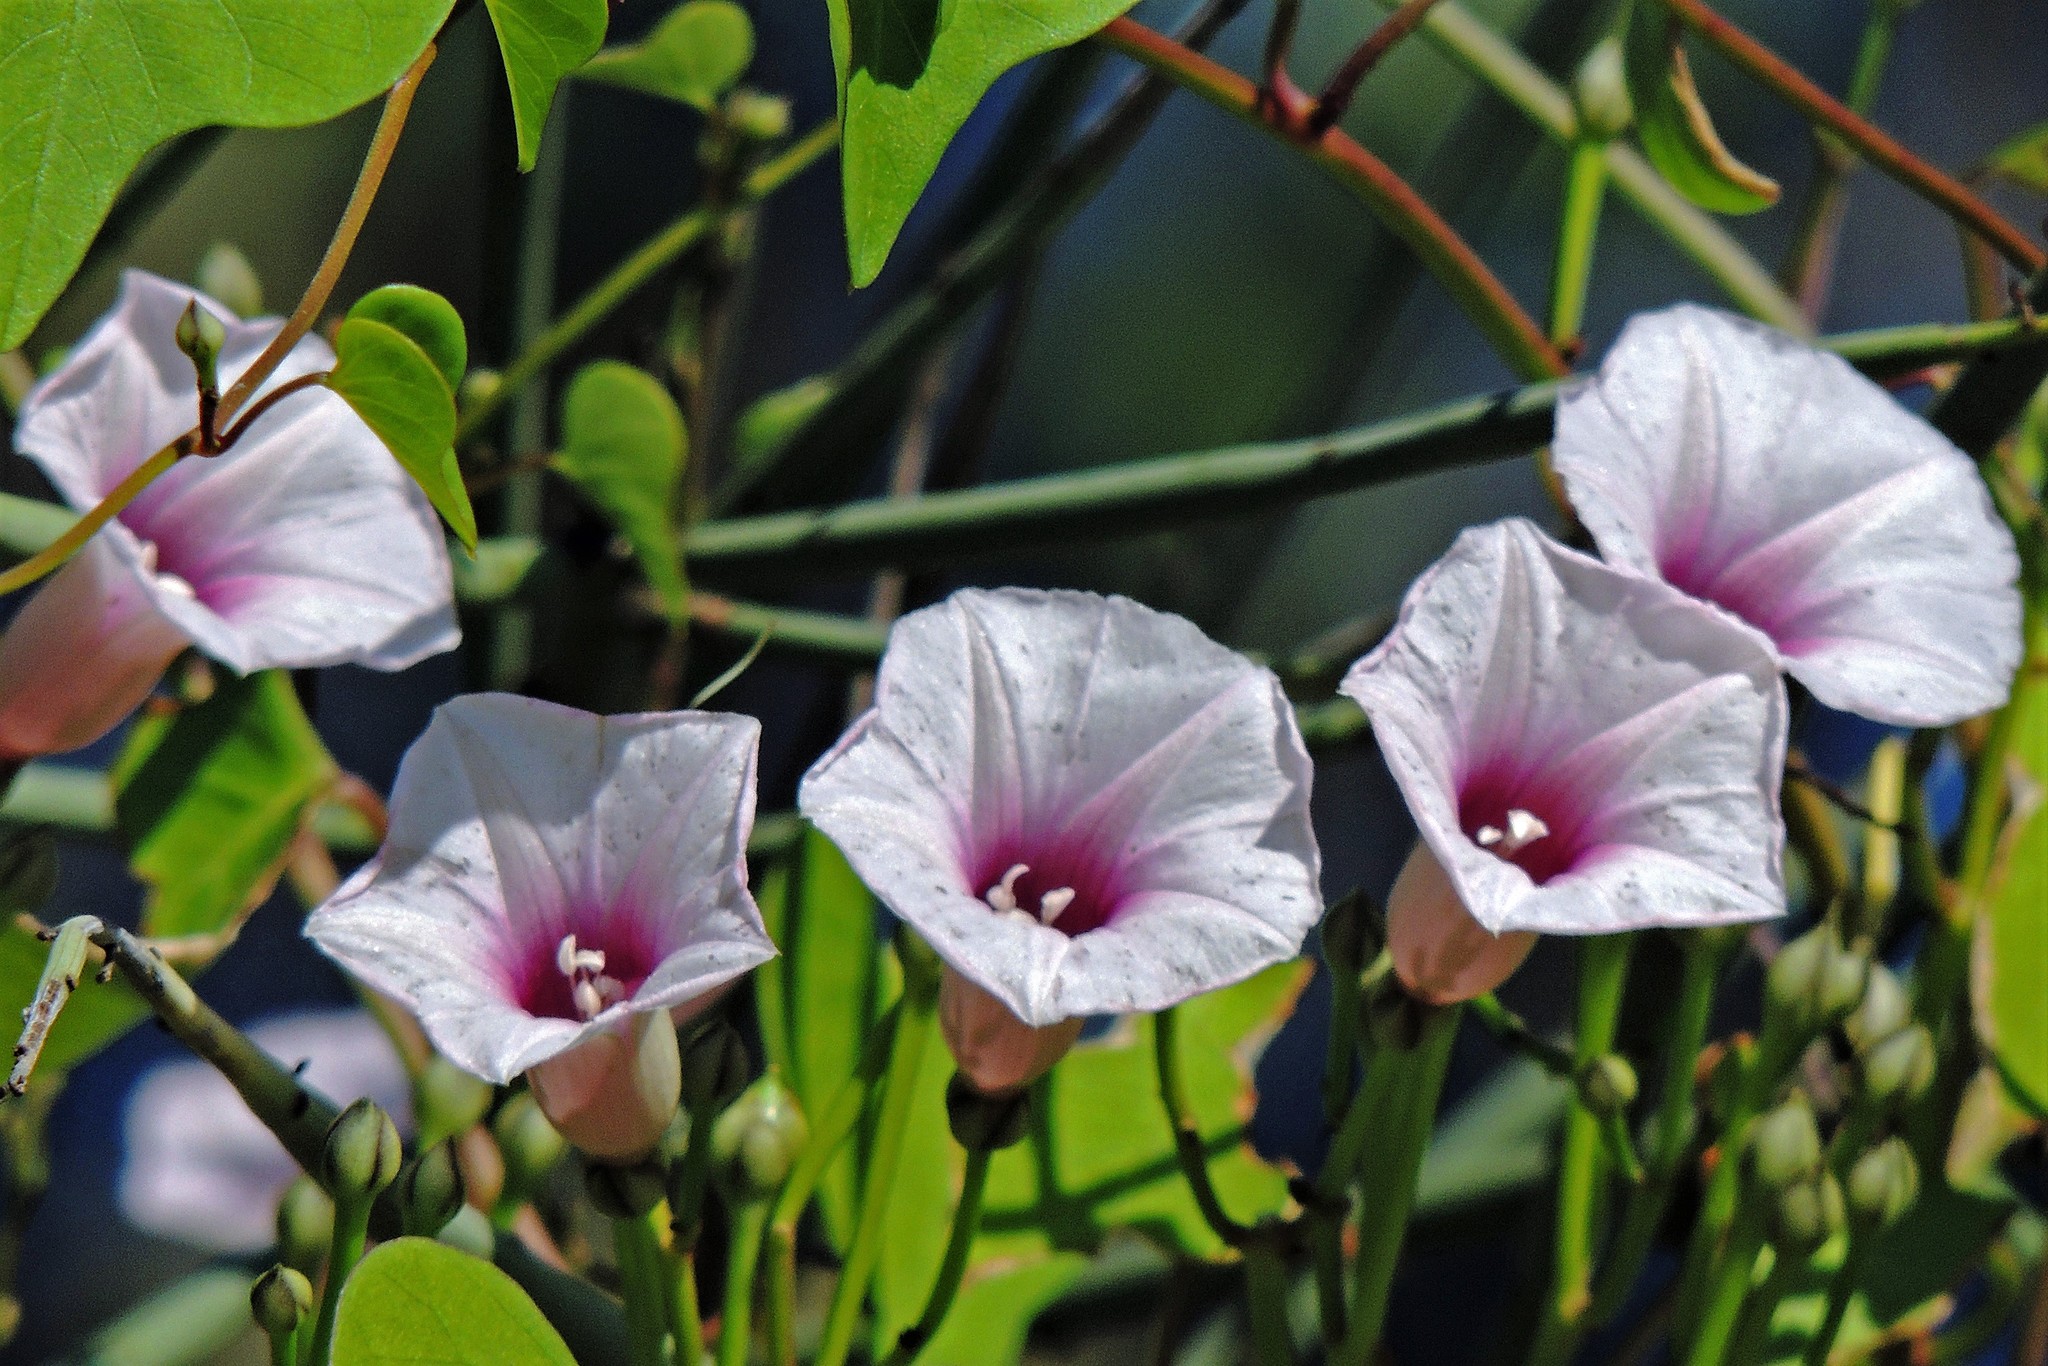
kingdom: Plantae
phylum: Tracheophyta
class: Magnoliopsida
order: Solanales
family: Convolvulaceae
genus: Ipomoea
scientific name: Ipomoea amnicola
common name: Redcenter morning-glory
